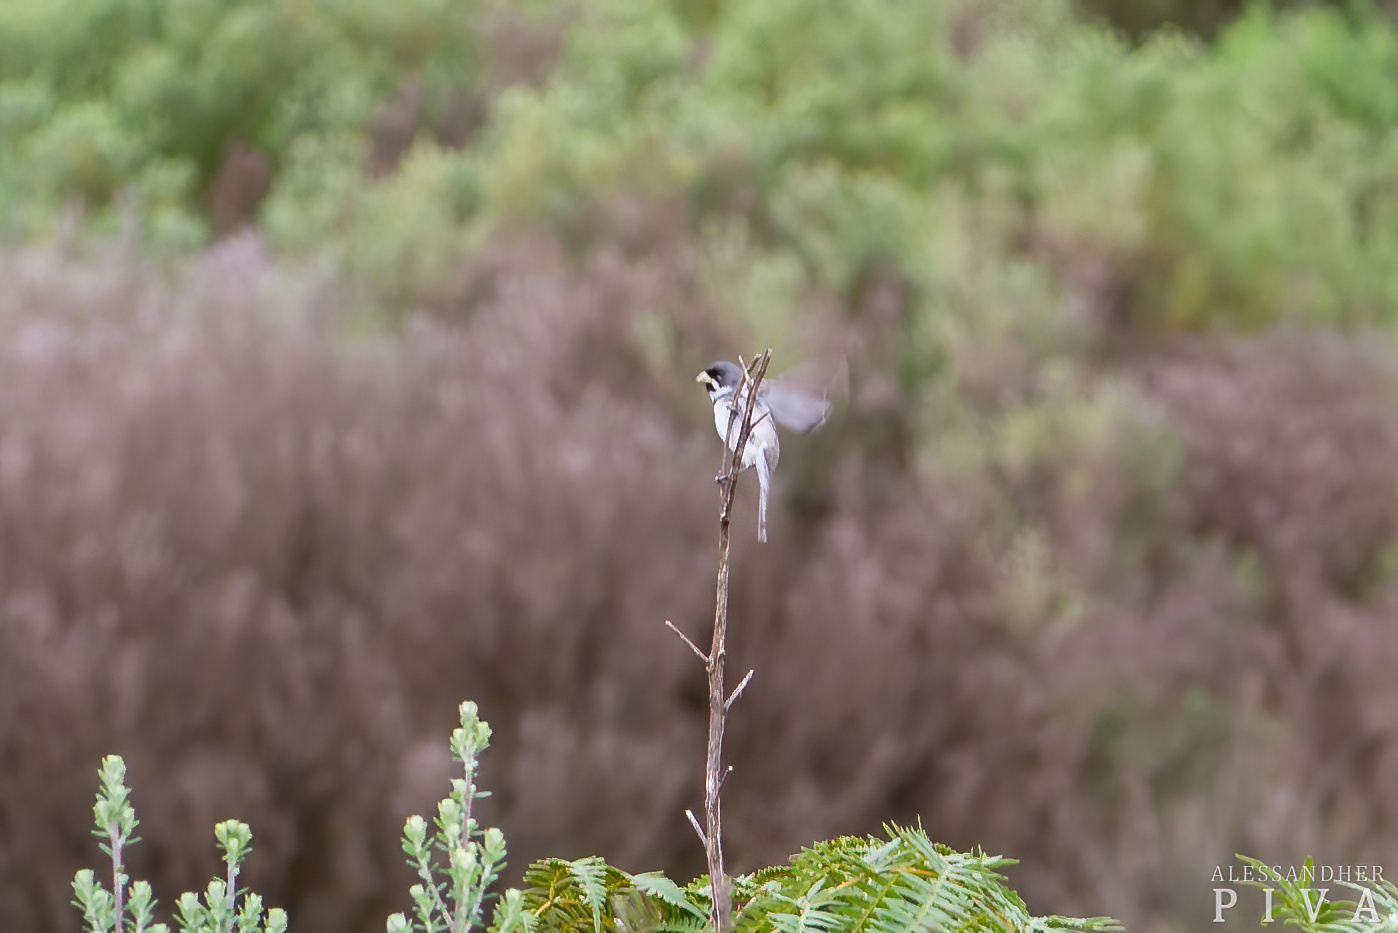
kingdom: Animalia
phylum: Chordata
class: Aves
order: Passeriformes
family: Thraupidae
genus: Sporophila
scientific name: Sporophila caerulescens
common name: Double-collared seedeater
